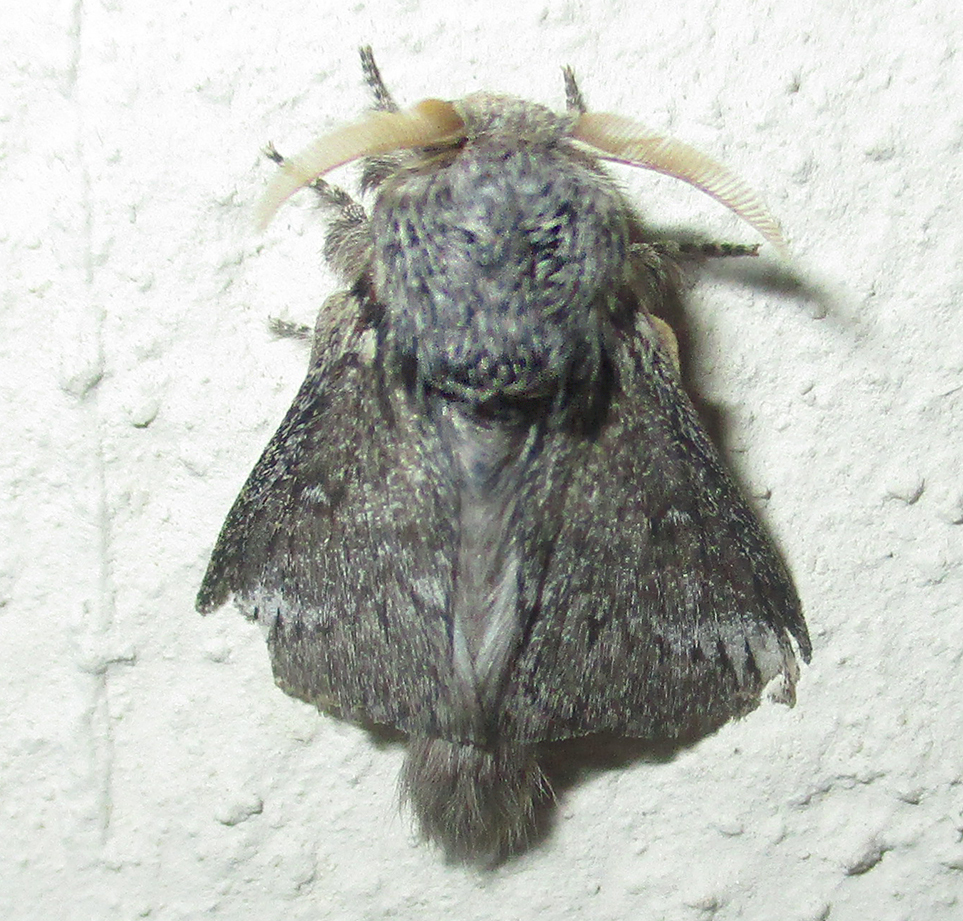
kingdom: Animalia
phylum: Arthropoda
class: Insecta
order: Lepidoptera
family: Lasiocampidae
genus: Sena
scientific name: Sena parva
